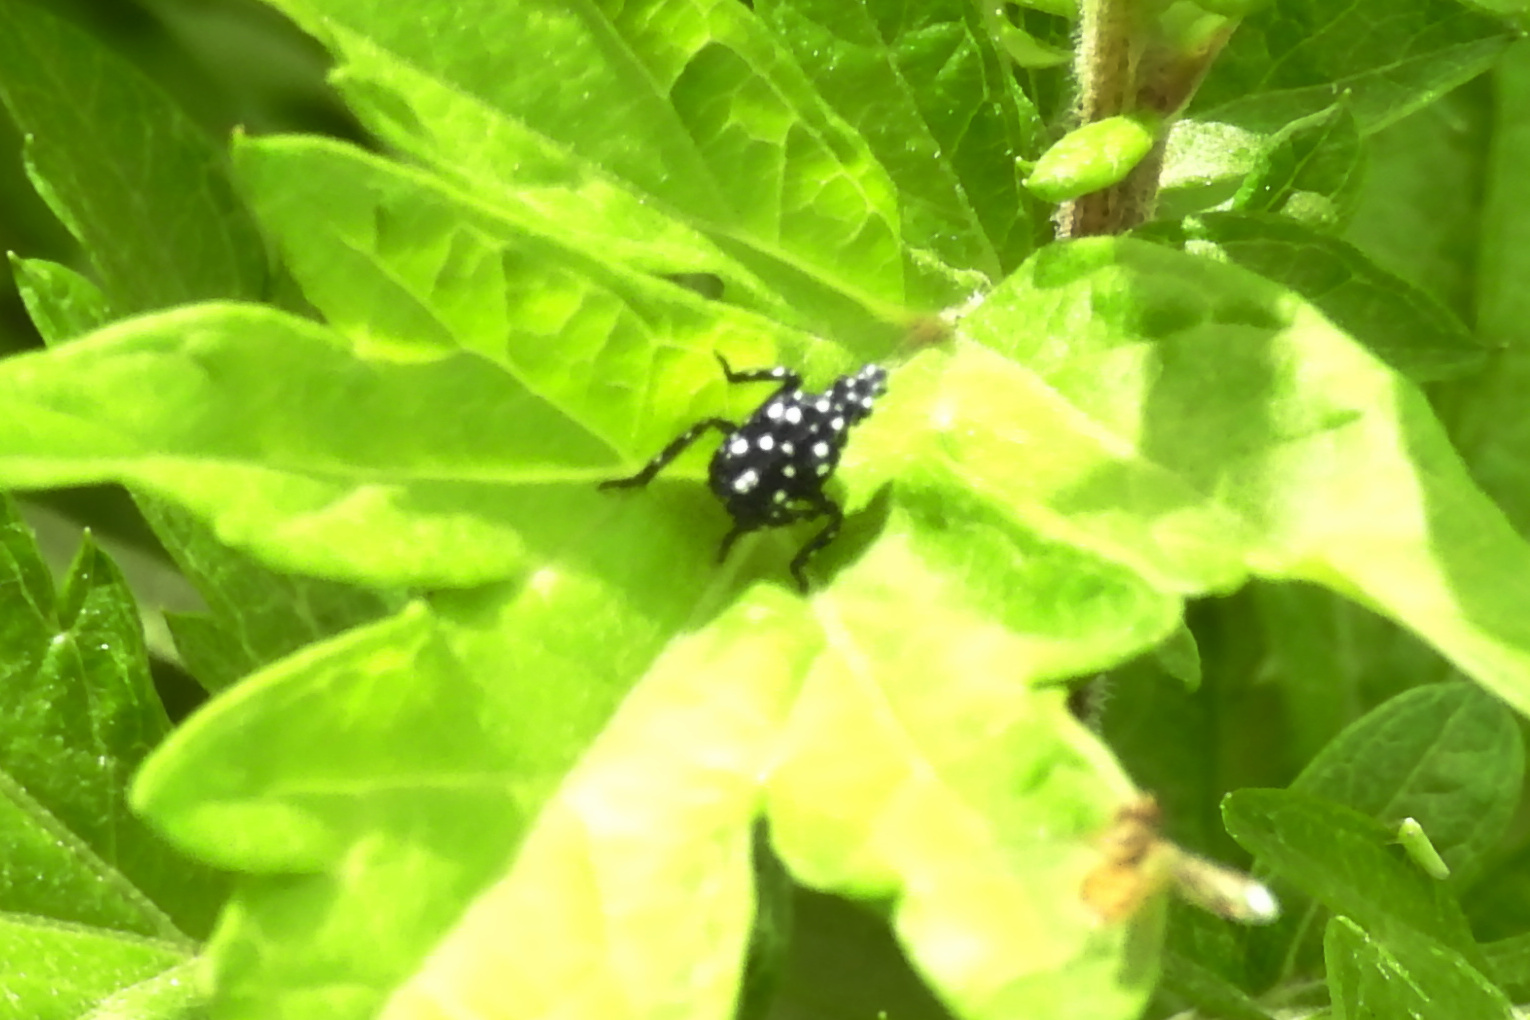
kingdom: Animalia
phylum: Arthropoda
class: Insecta
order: Hemiptera
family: Fulgoridae
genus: Lycorma
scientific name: Lycorma delicatula
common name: Spotted lanternfly
